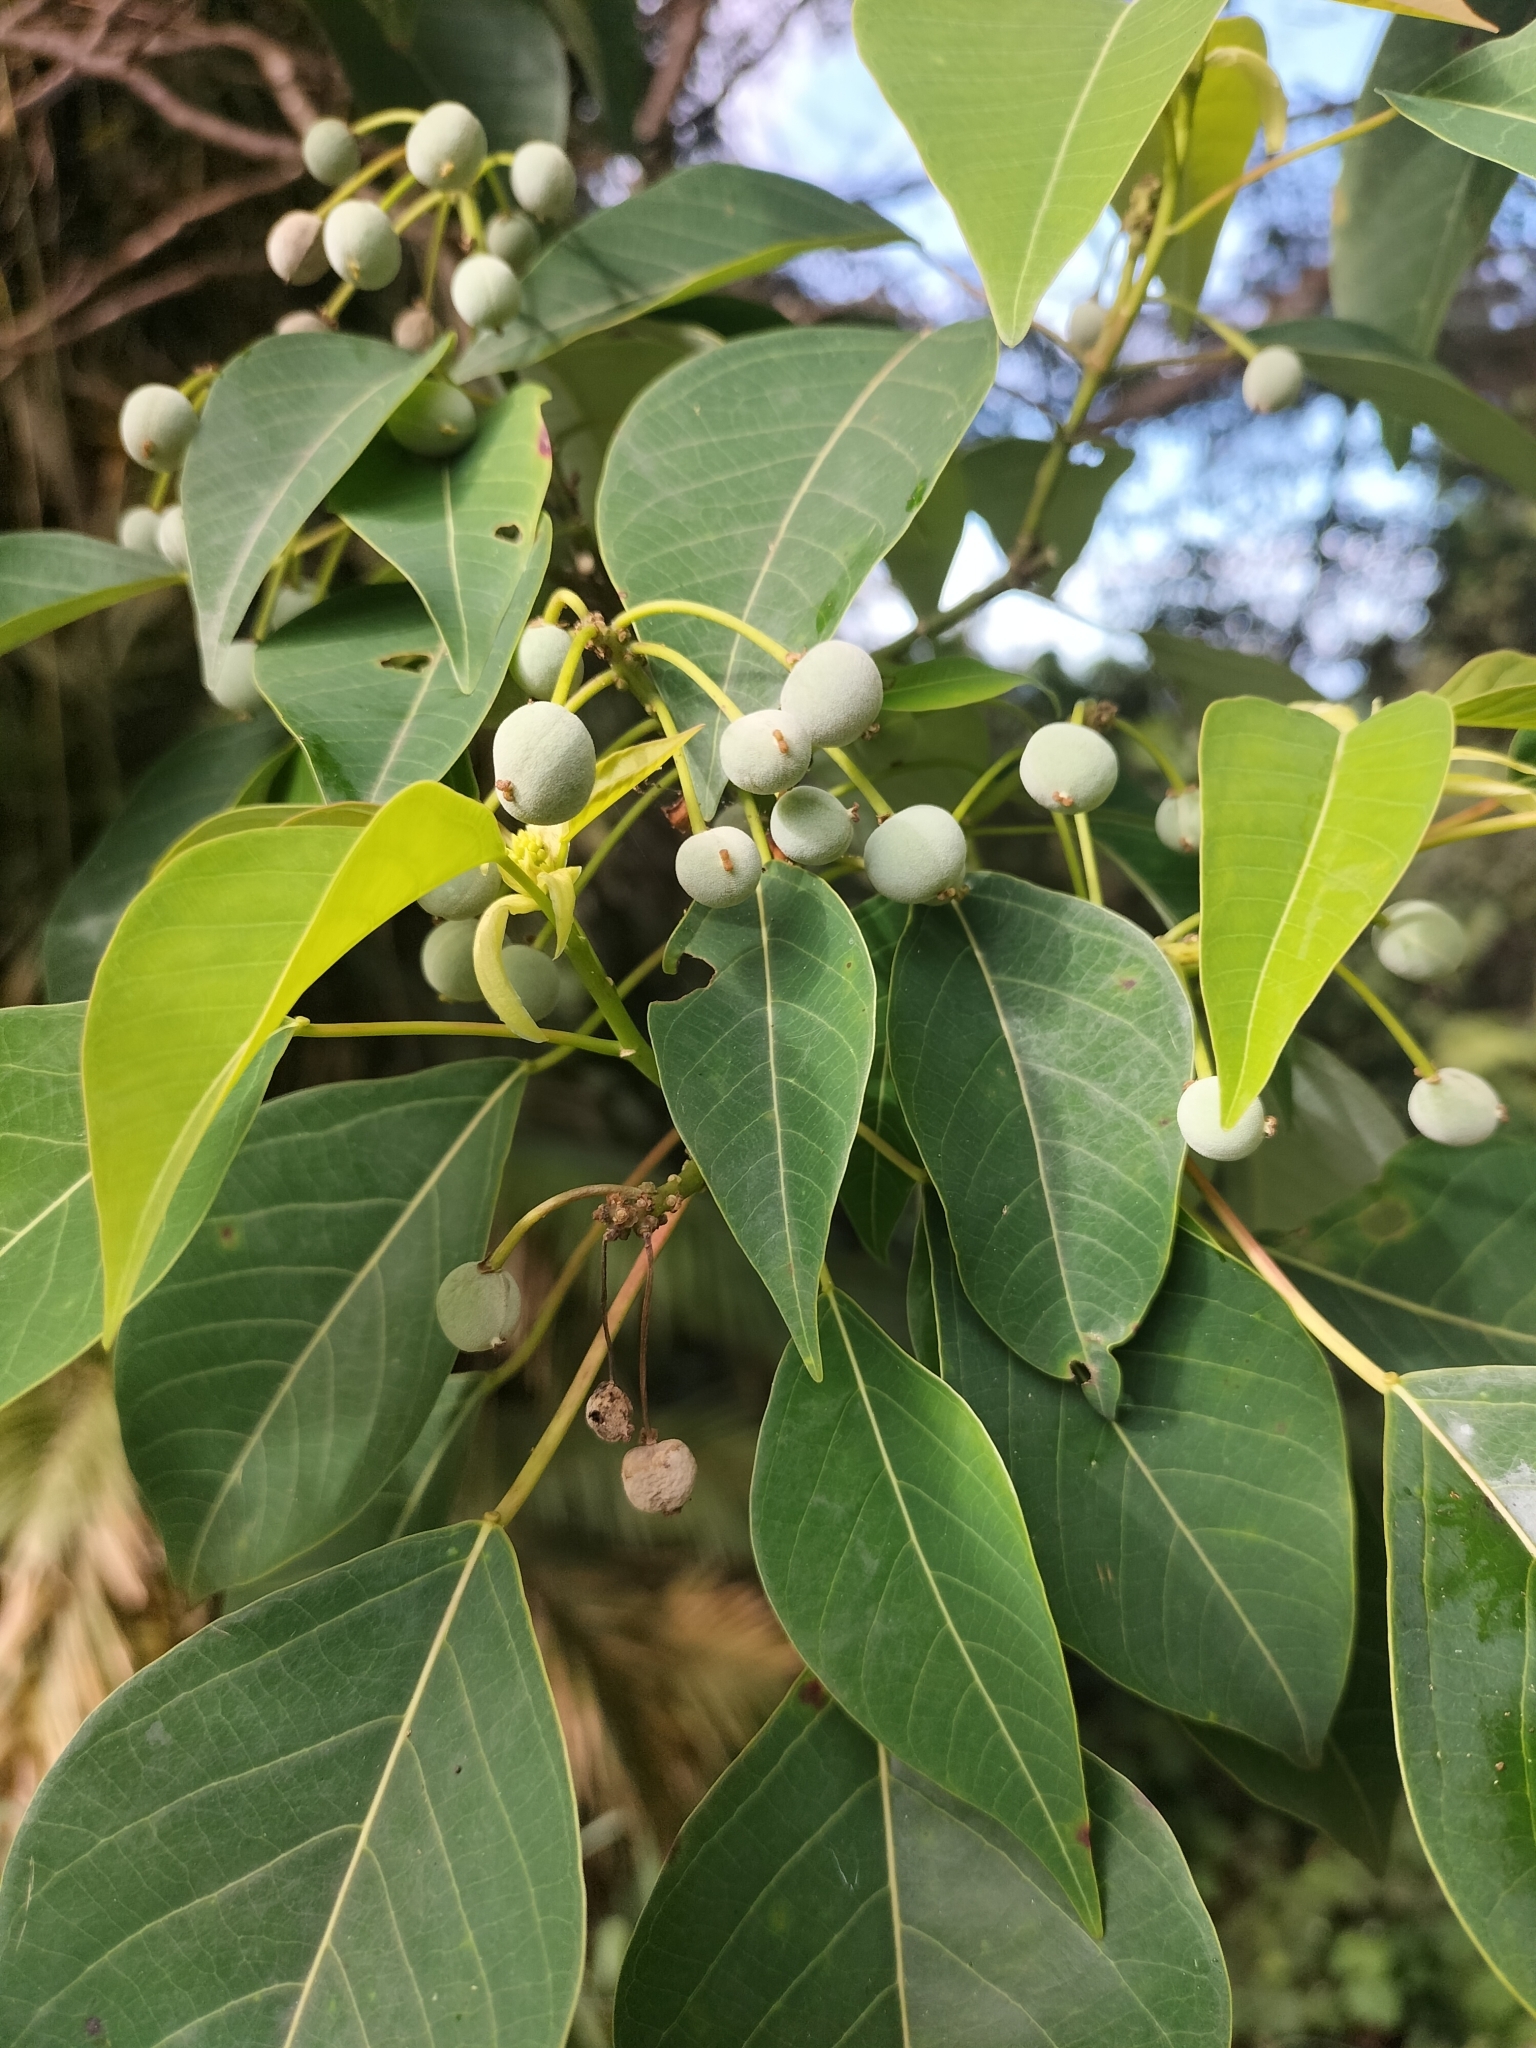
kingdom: Plantae
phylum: Tracheophyta
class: Magnoliopsida
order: Malpighiales
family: Euphorbiaceae
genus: Homalanthus
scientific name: Homalanthus novoguineensis
